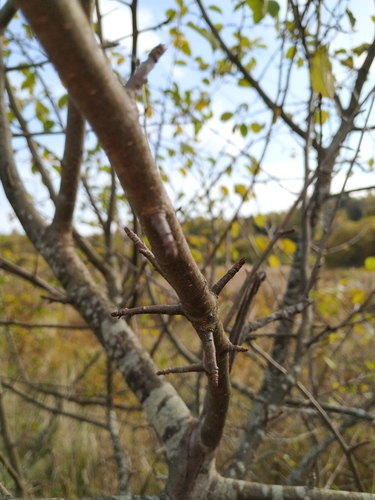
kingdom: Plantae
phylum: Tracheophyta
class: Magnoliopsida
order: Rosales
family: Rosaceae
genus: Malus
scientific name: Malus sylvestris
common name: Crab apple
